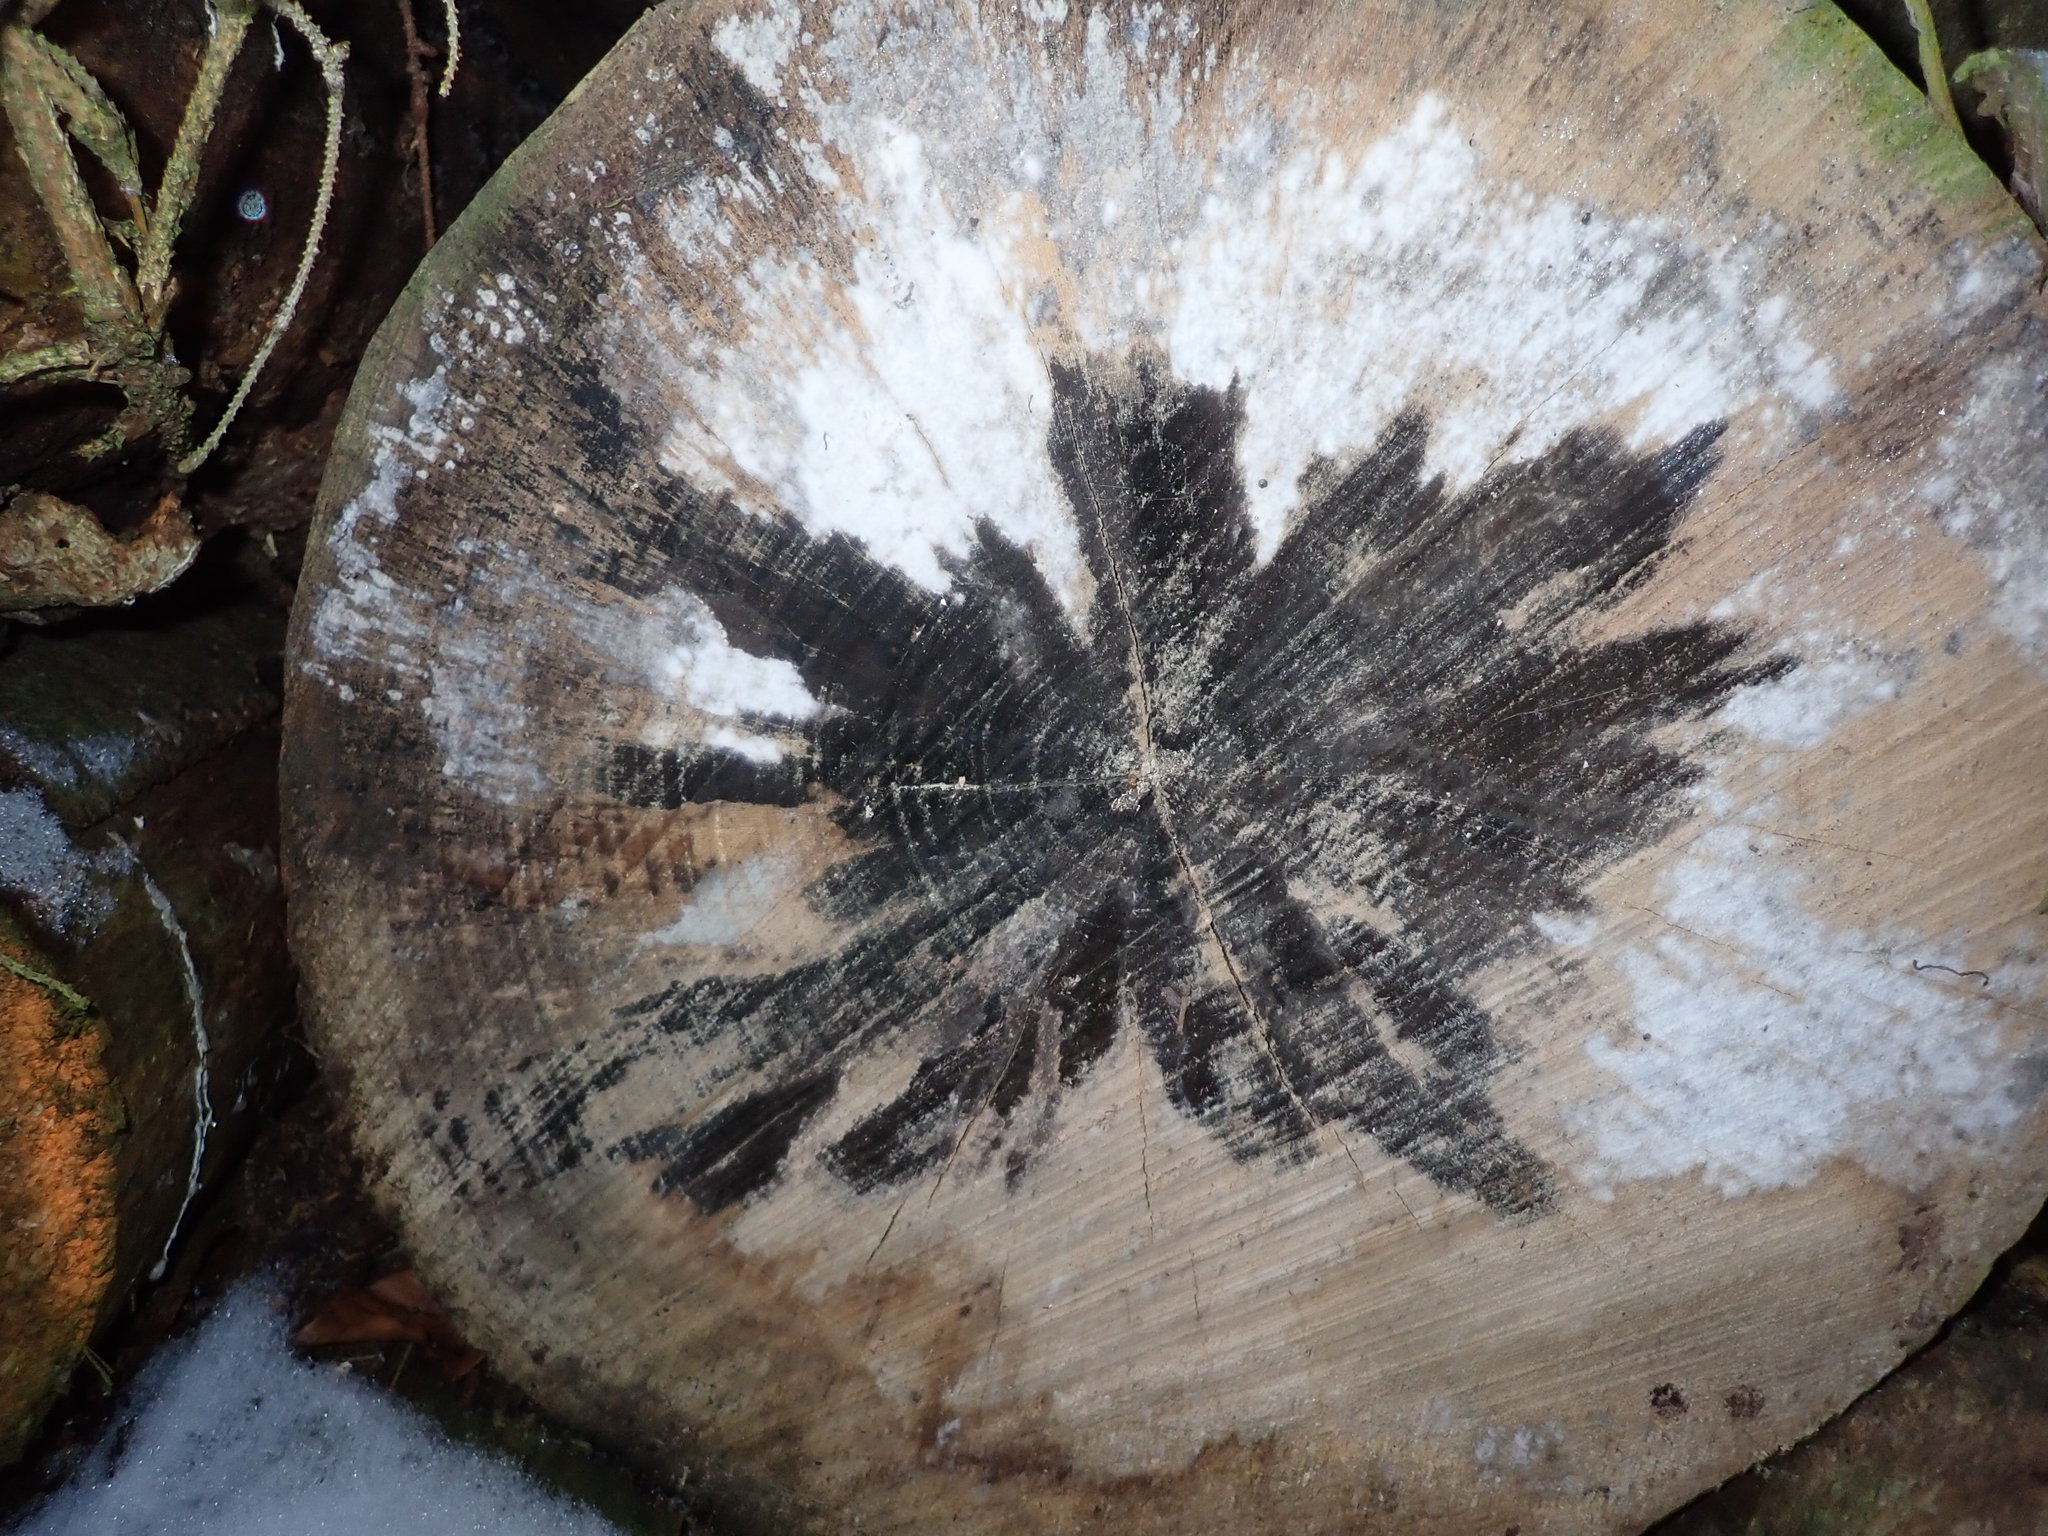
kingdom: Fungi
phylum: Ascomycota
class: Leotiomycetes
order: Helotiales
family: Helotiaceae
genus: Bispora
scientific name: Bispora pallescens
